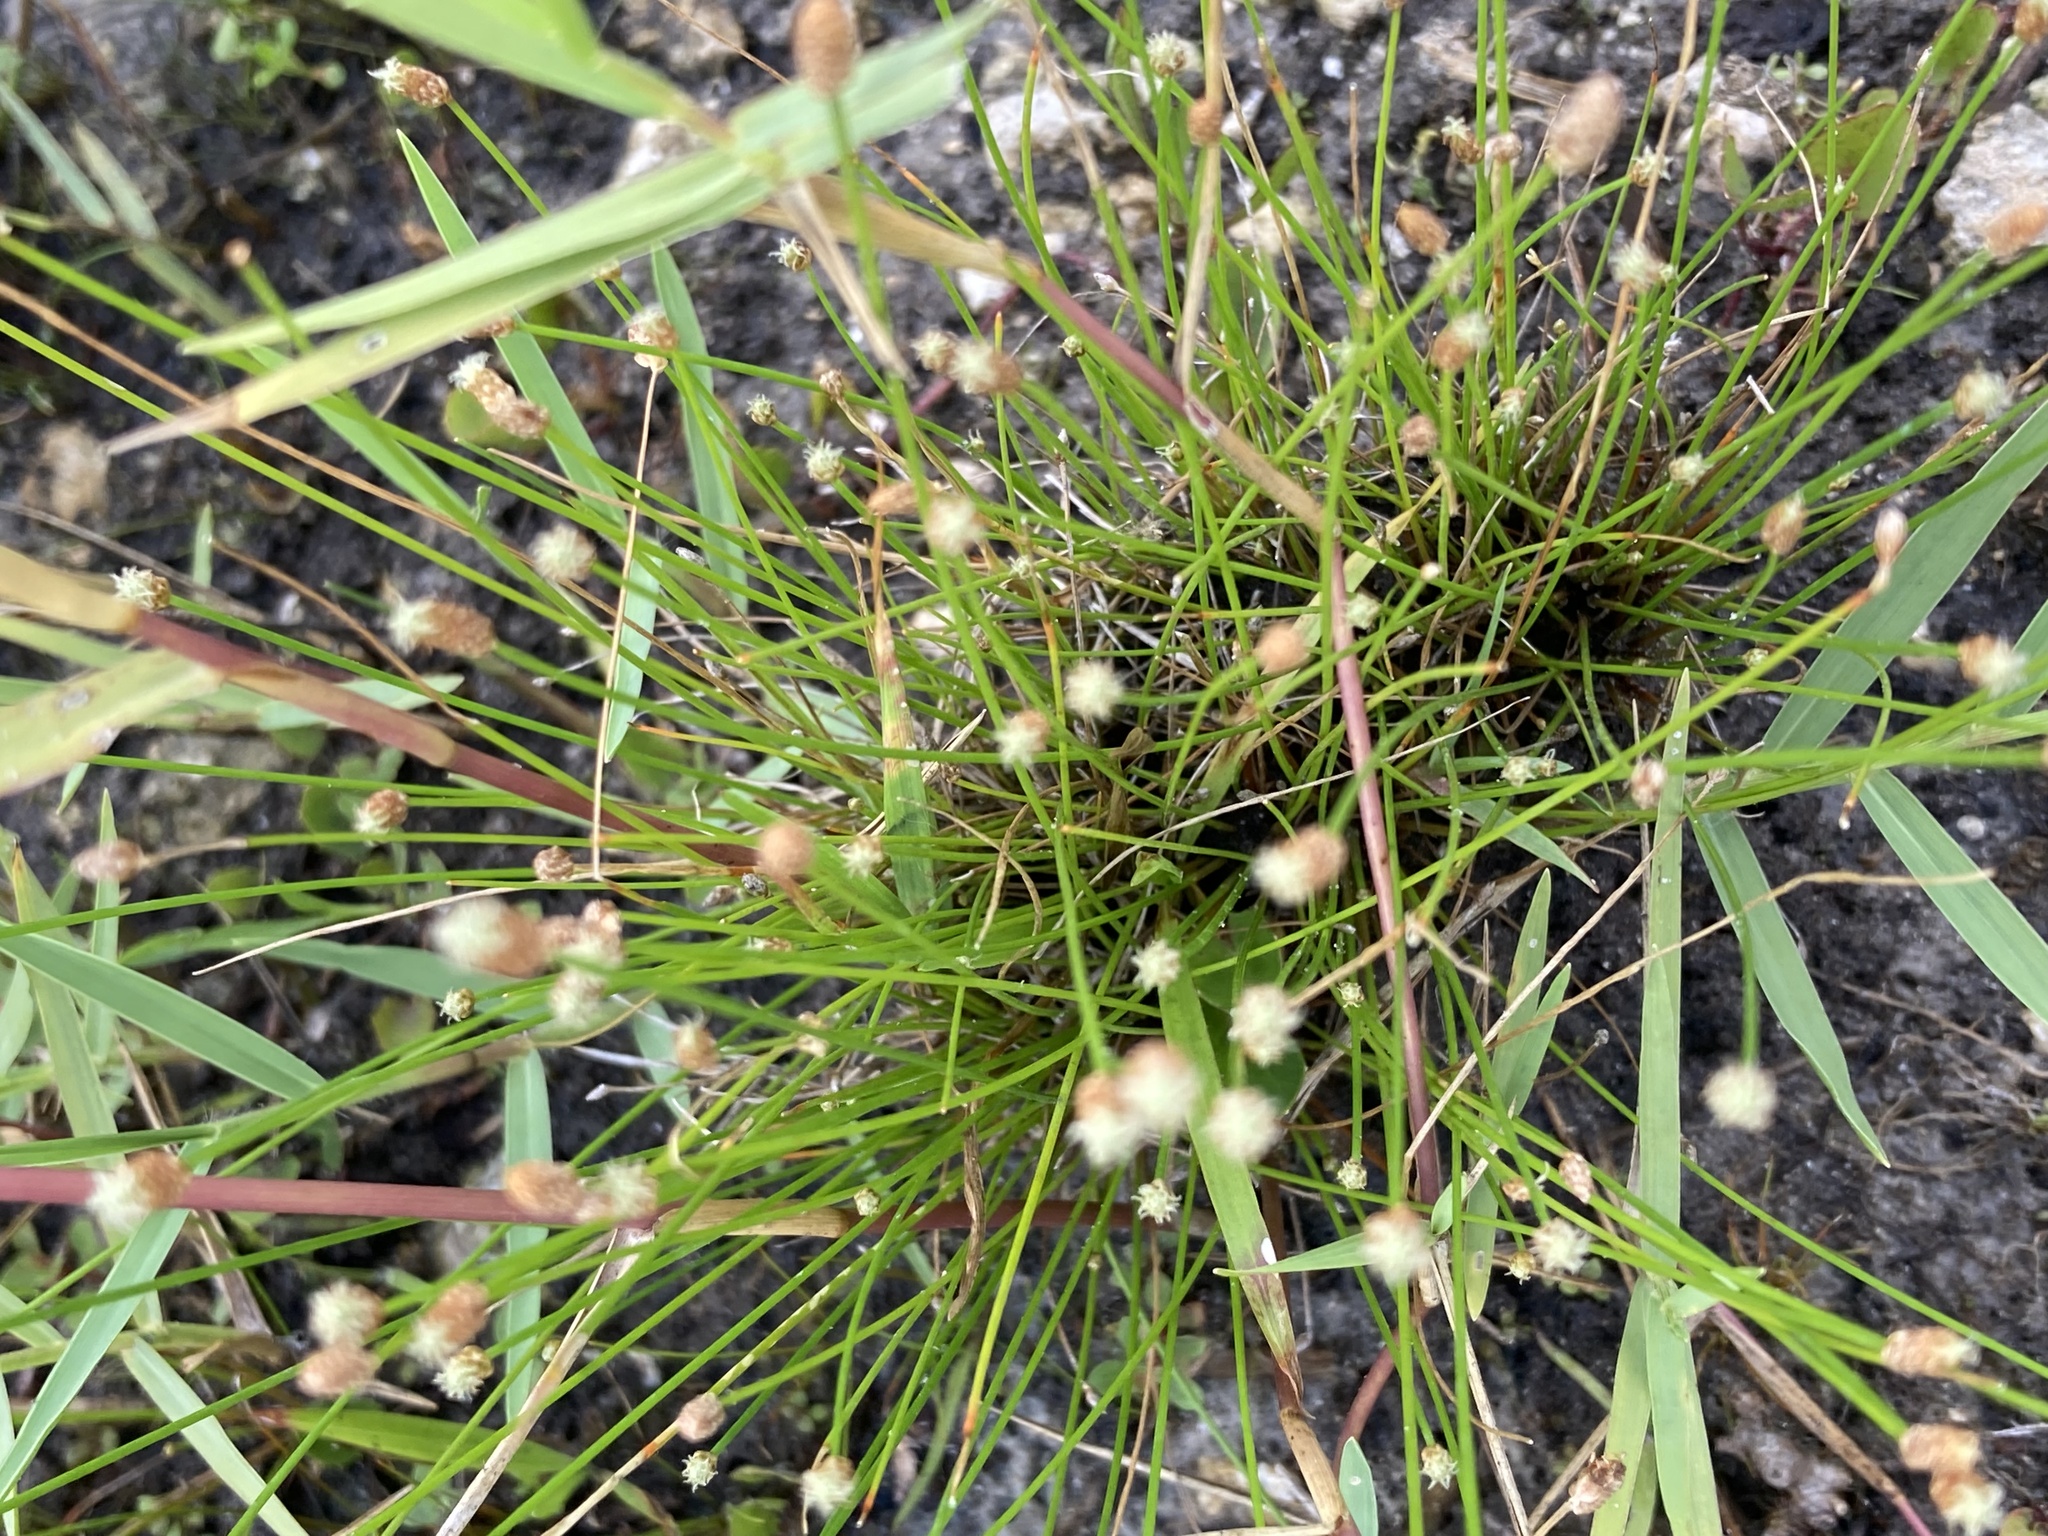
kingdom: Plantae
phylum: Tracheophyta
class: Liliopsida
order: Poales
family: Cyperaceae
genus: Eleocharis
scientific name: Eleocharis geniculata
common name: Canada spikesedge
